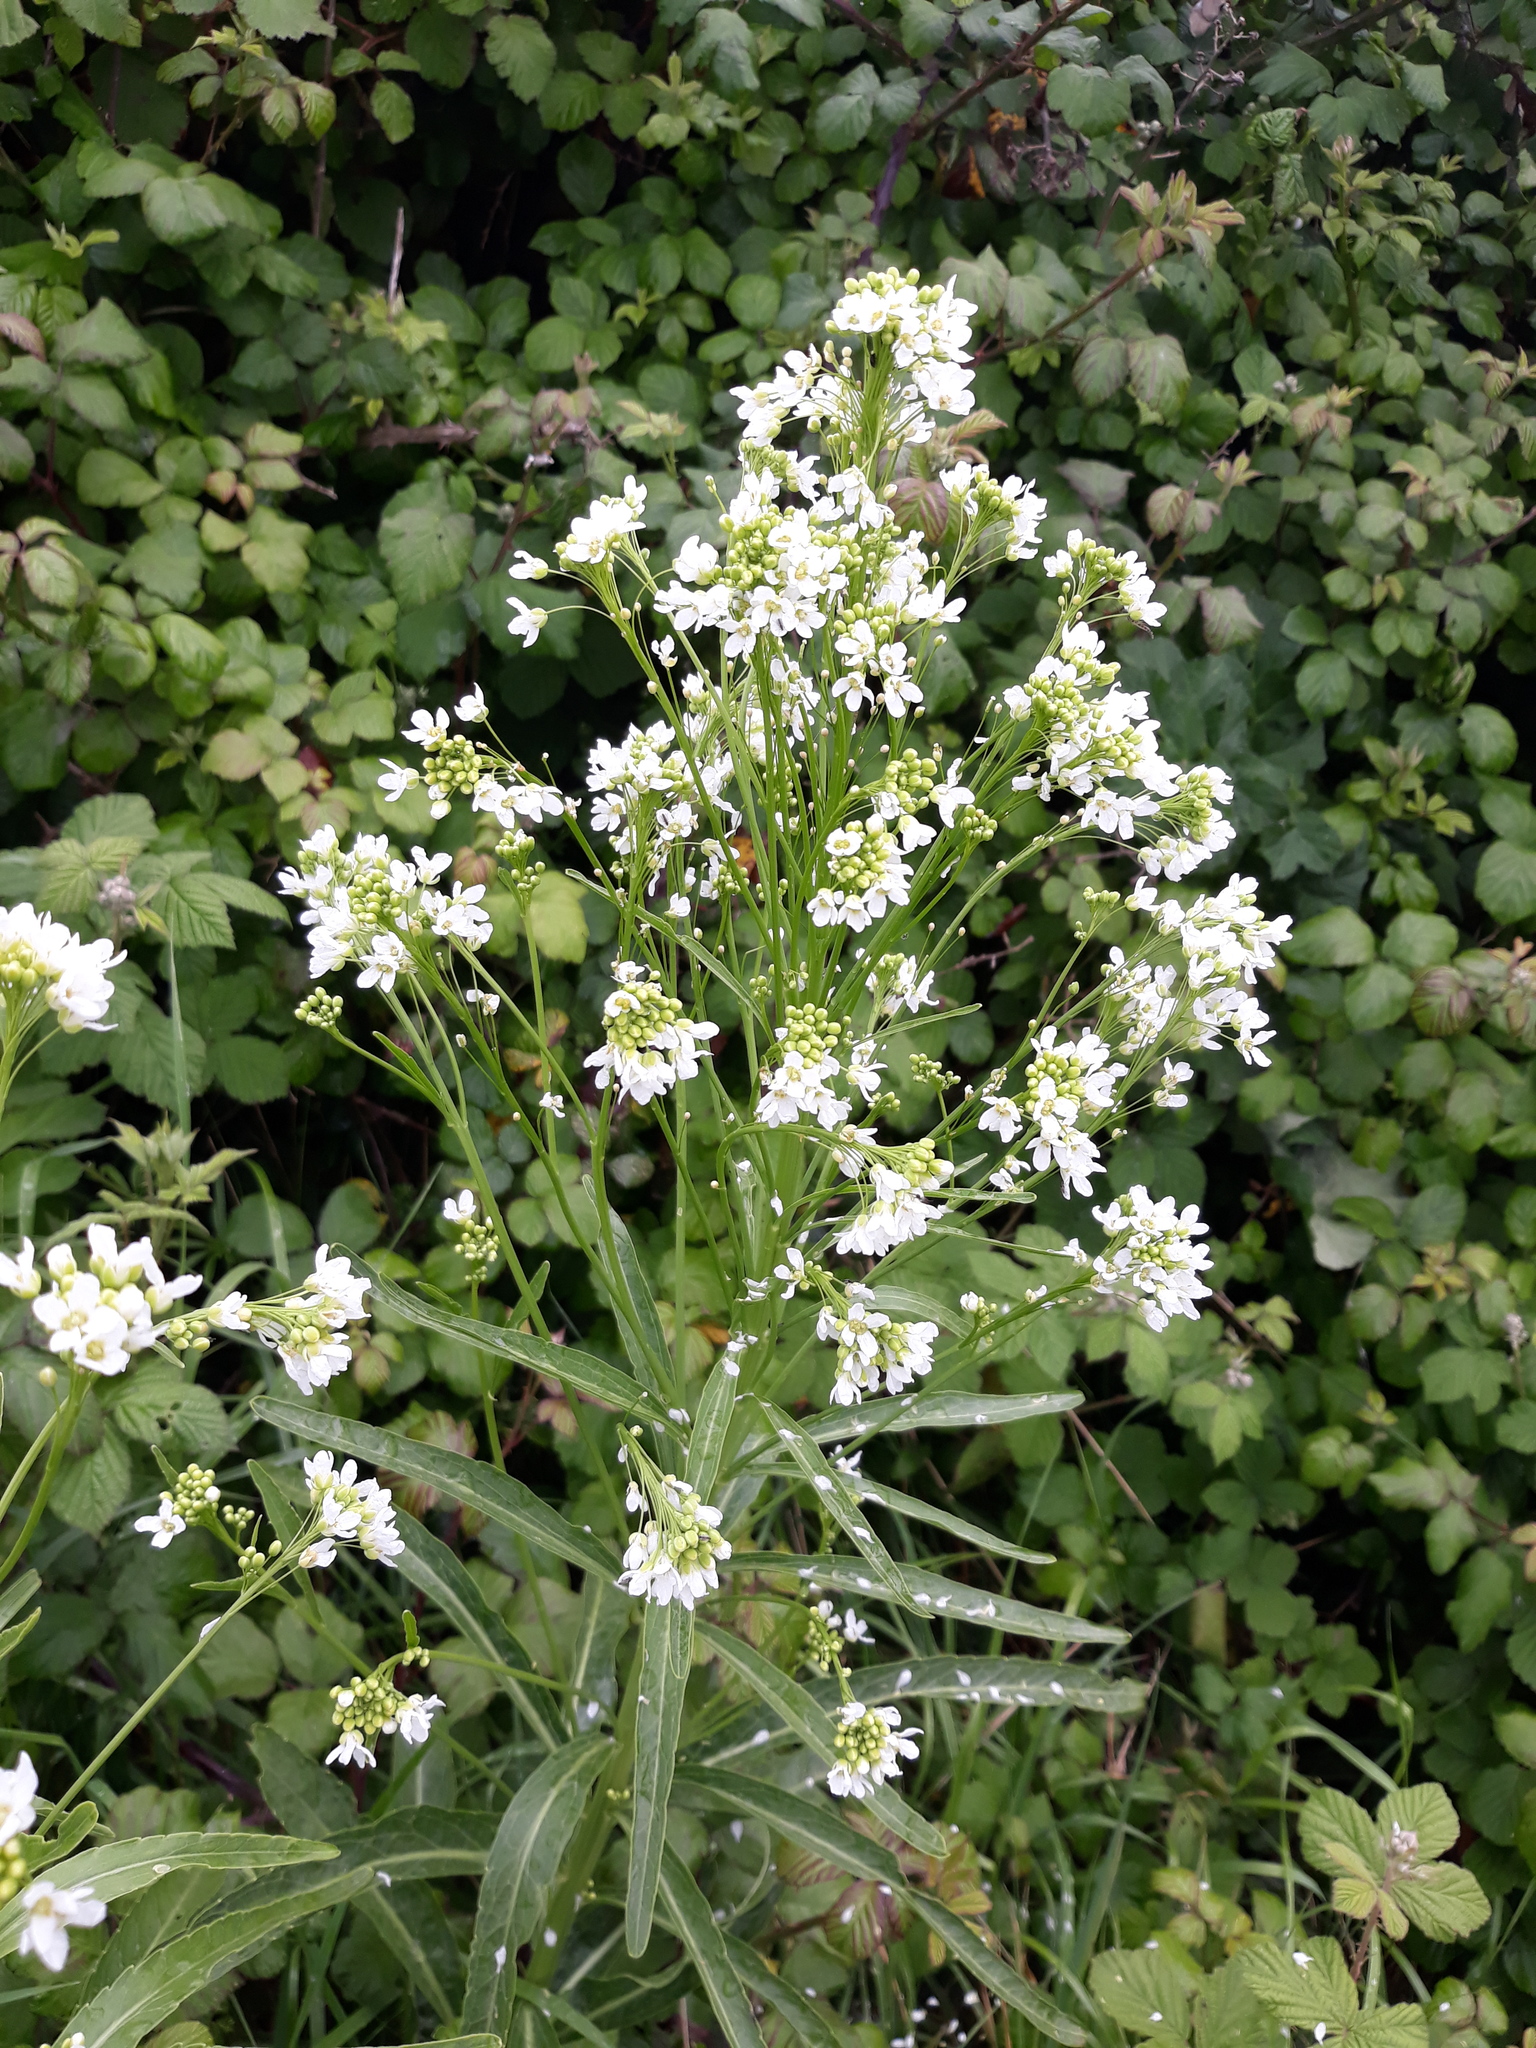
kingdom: Plantae
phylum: Tracheophyta
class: Magnoliopsida
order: Brassicales
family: Brassicaceae
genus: Armoracia
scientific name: Armoracia rusticana
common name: Horseradish
